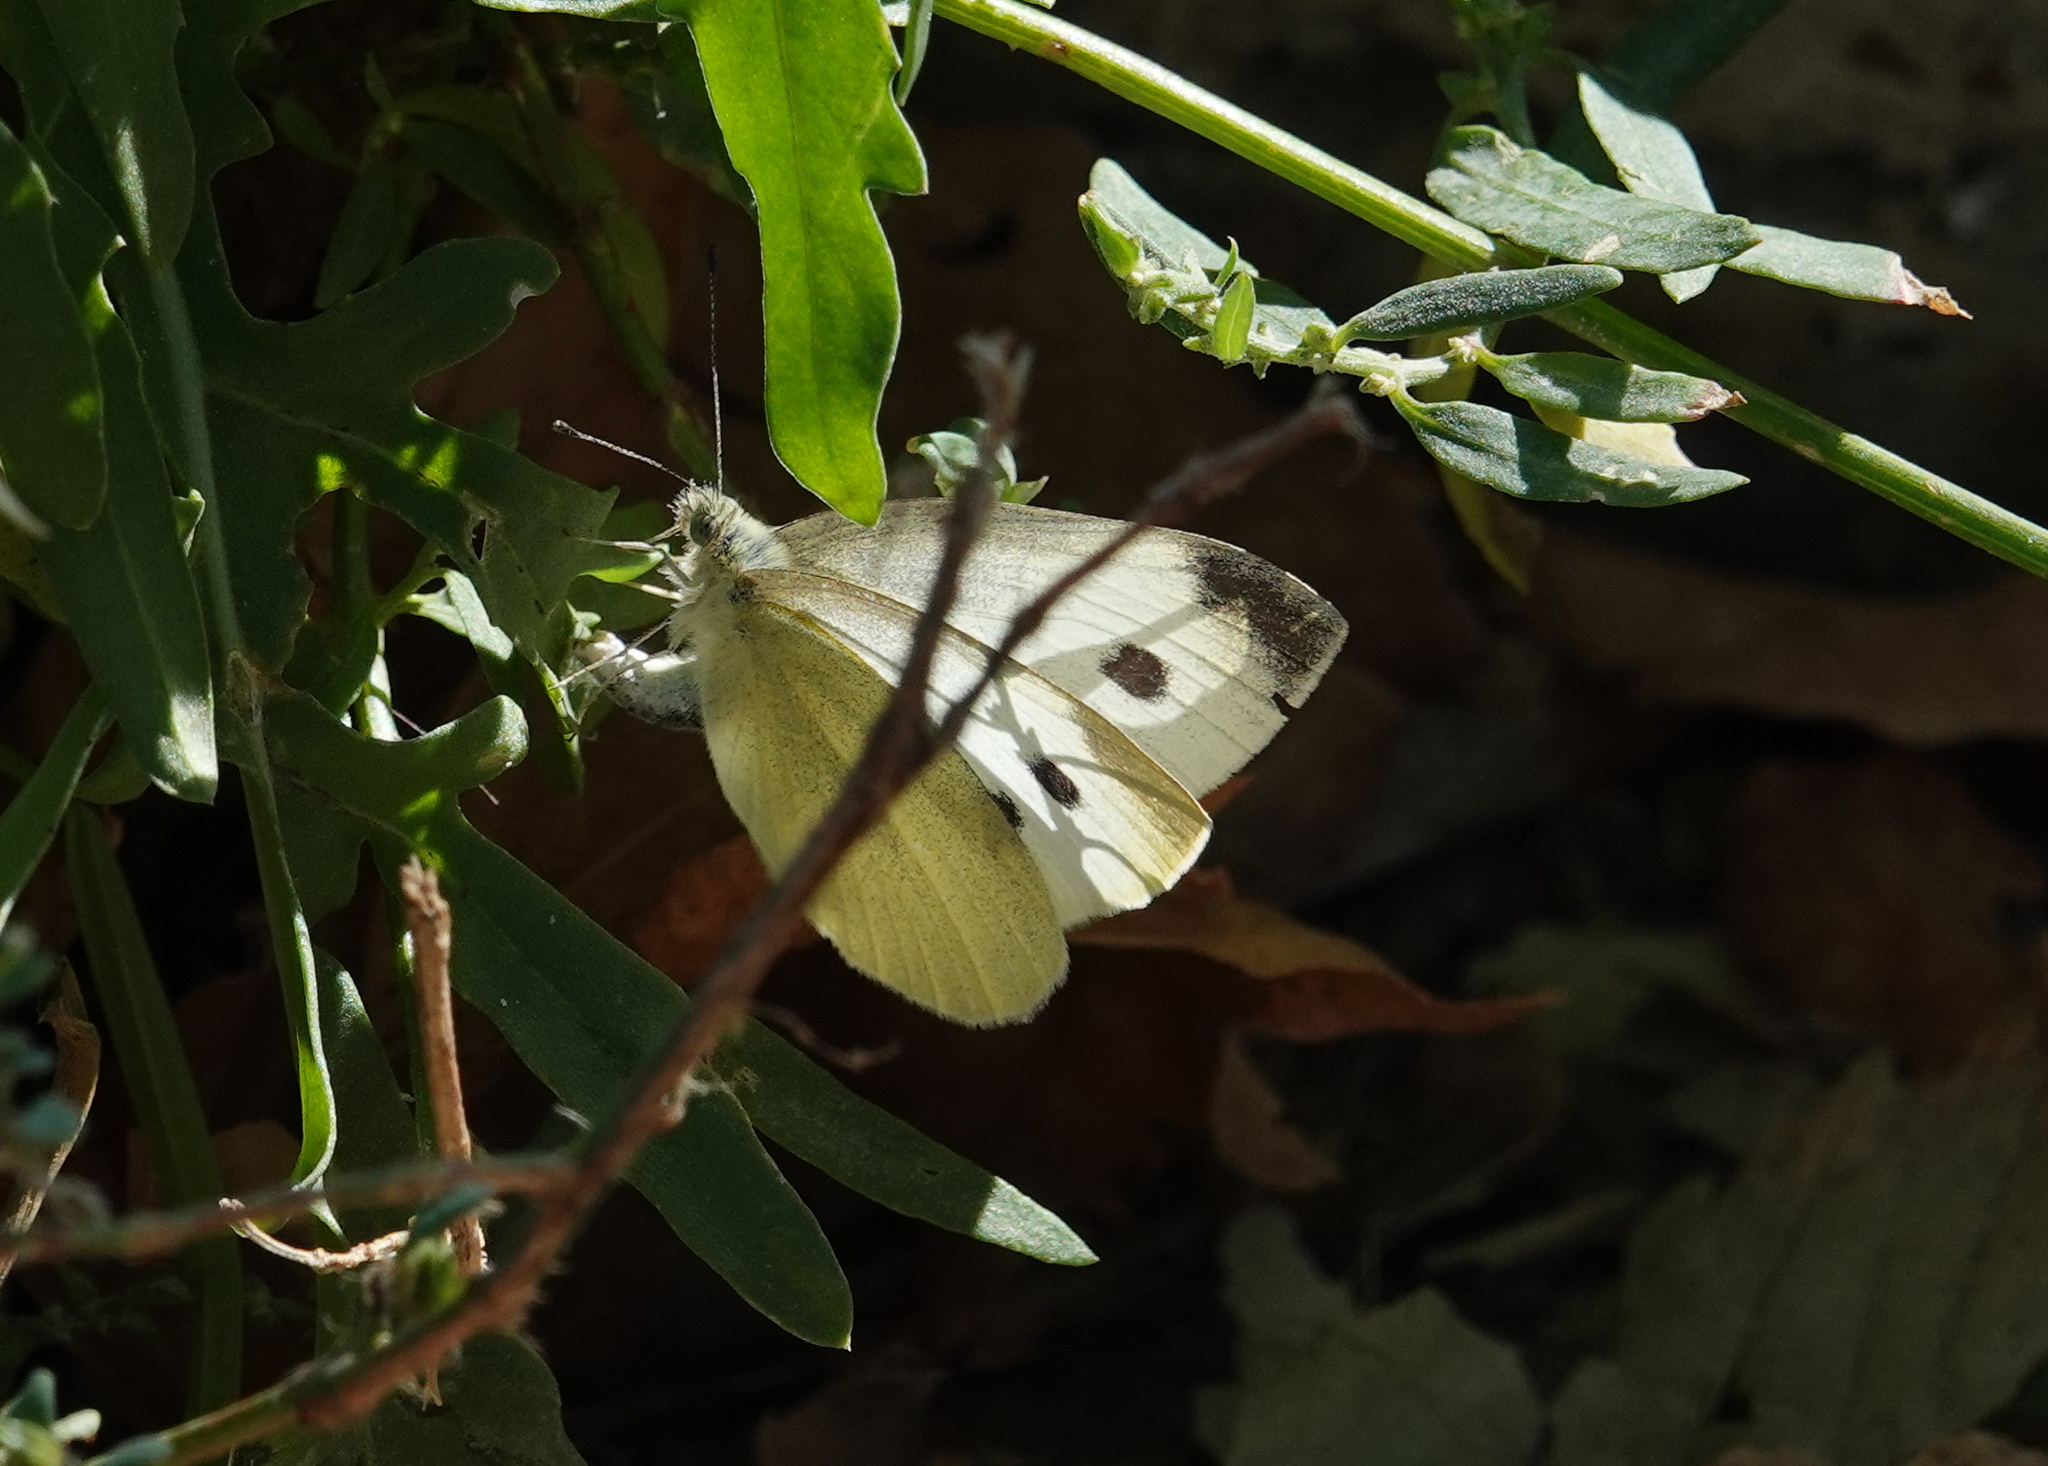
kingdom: Animalia
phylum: Arthropoda
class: Insecta
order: Lepidoptera
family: Pieridae
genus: Pieris
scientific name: Pieris rapae
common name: Small white
